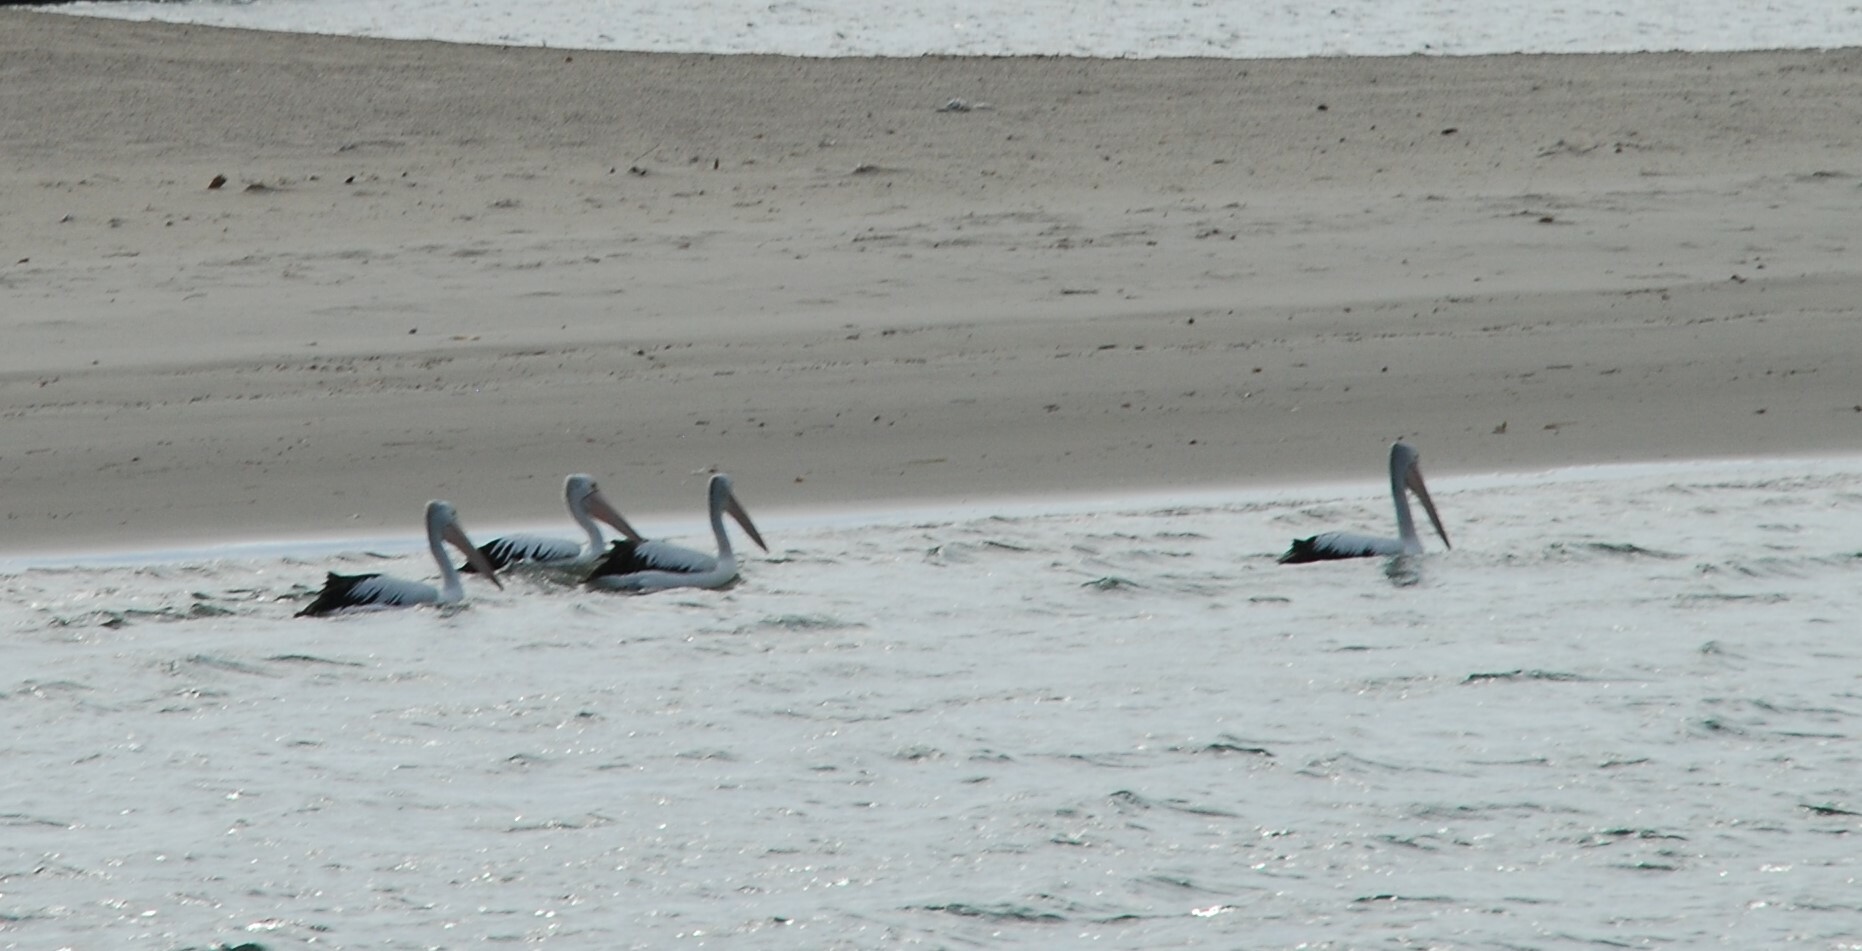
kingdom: Animalia
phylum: Chordata
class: Aves
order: Pelecaniformes
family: Pelecanidae
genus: Pelecanus
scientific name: Pelecanus conspicillatus
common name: Australian pelican
